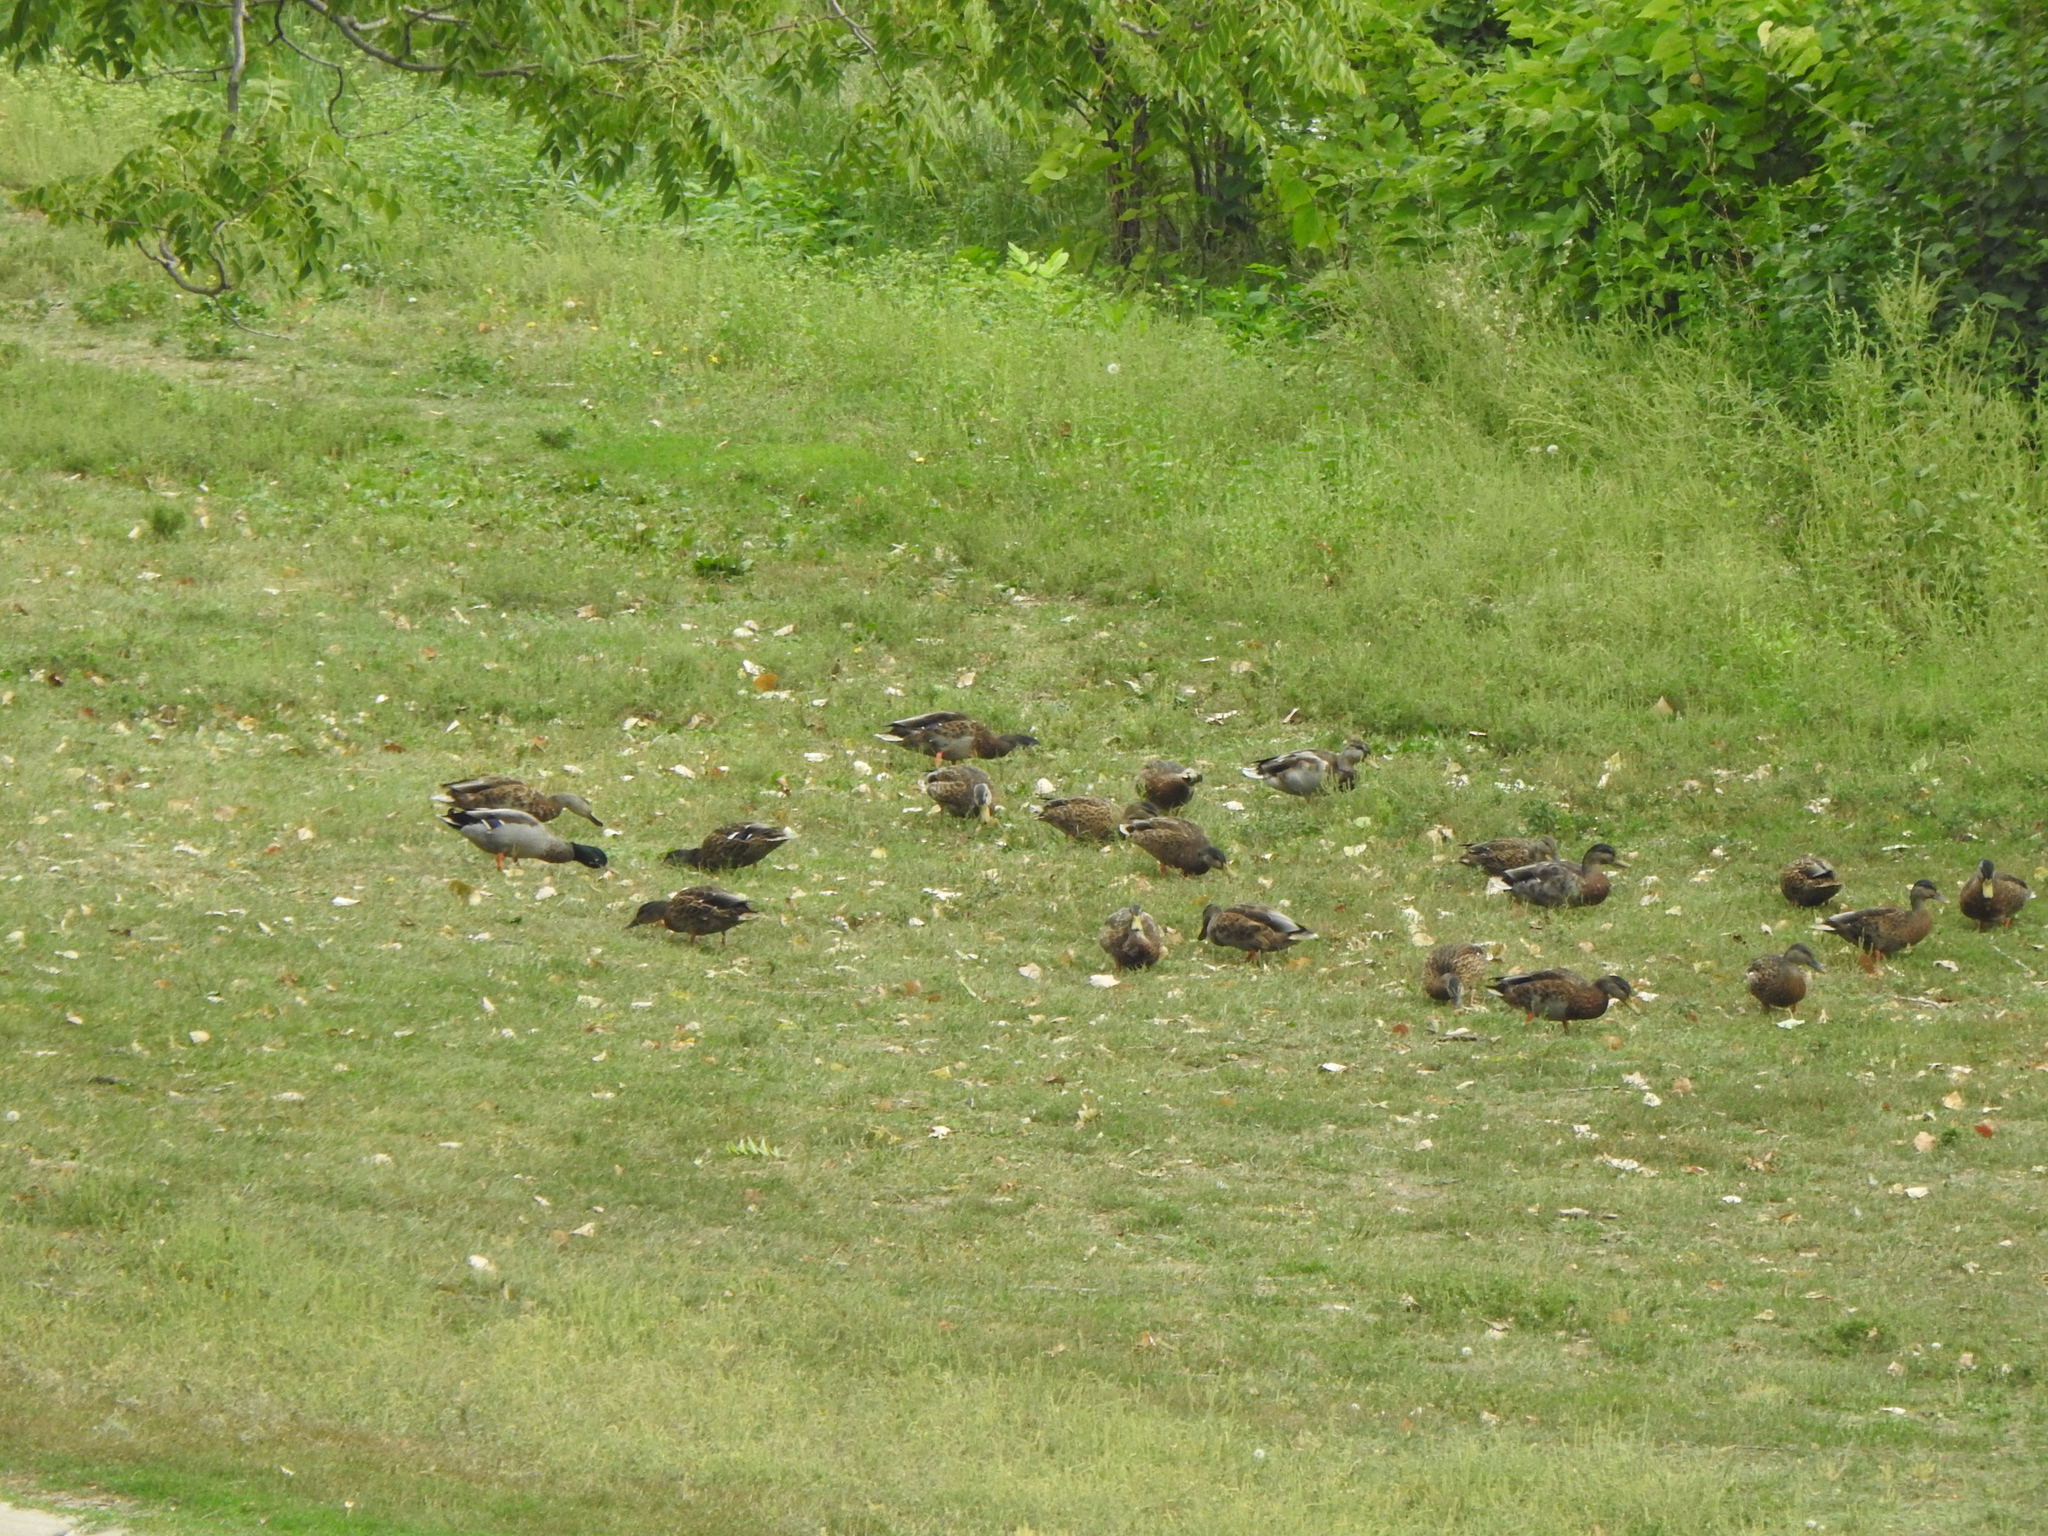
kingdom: Animalia
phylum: Chordata
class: Aves
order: Anseriformes
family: Anatidae
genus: Anas
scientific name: Anas platyrhynchos
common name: Mallard
